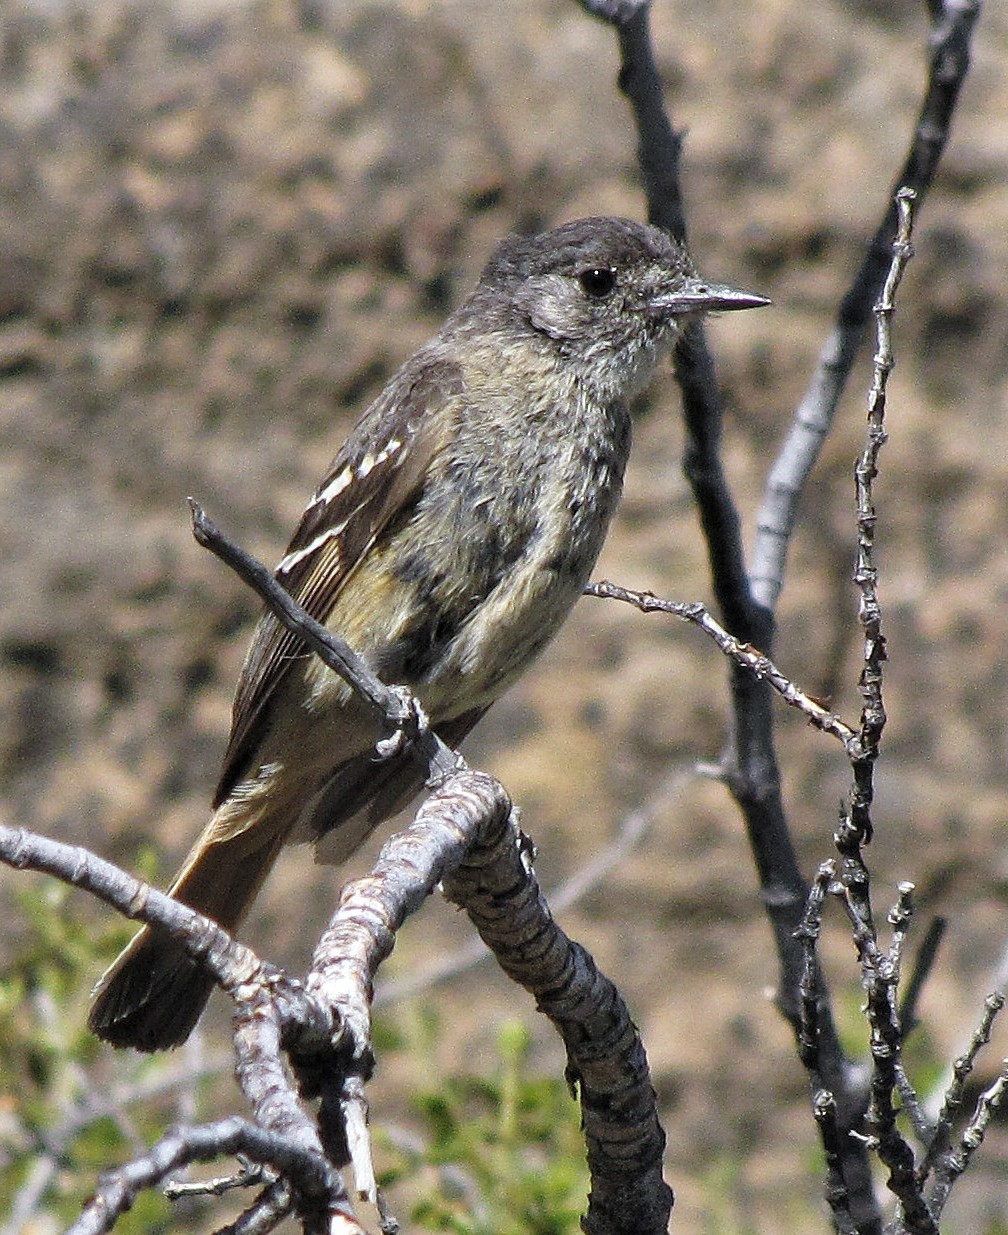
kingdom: Animalia
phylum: Chordata
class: Aves
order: Passeriformes
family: Tyrannidae
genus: Knipolegus
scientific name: Knipolegus aterrimus
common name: White-winged black tyrant
